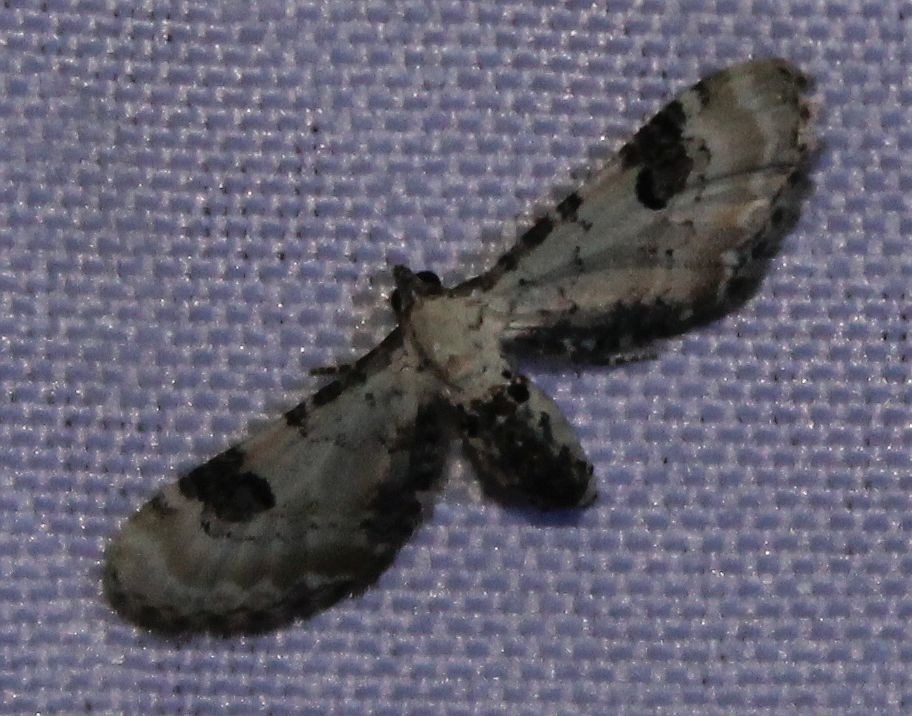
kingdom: Animalia
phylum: Arthropoda
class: Insecta
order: Lepidoptera
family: Geometridae
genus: Eupithecia
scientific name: Eupithecia centaureata
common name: Lime-speck pug
